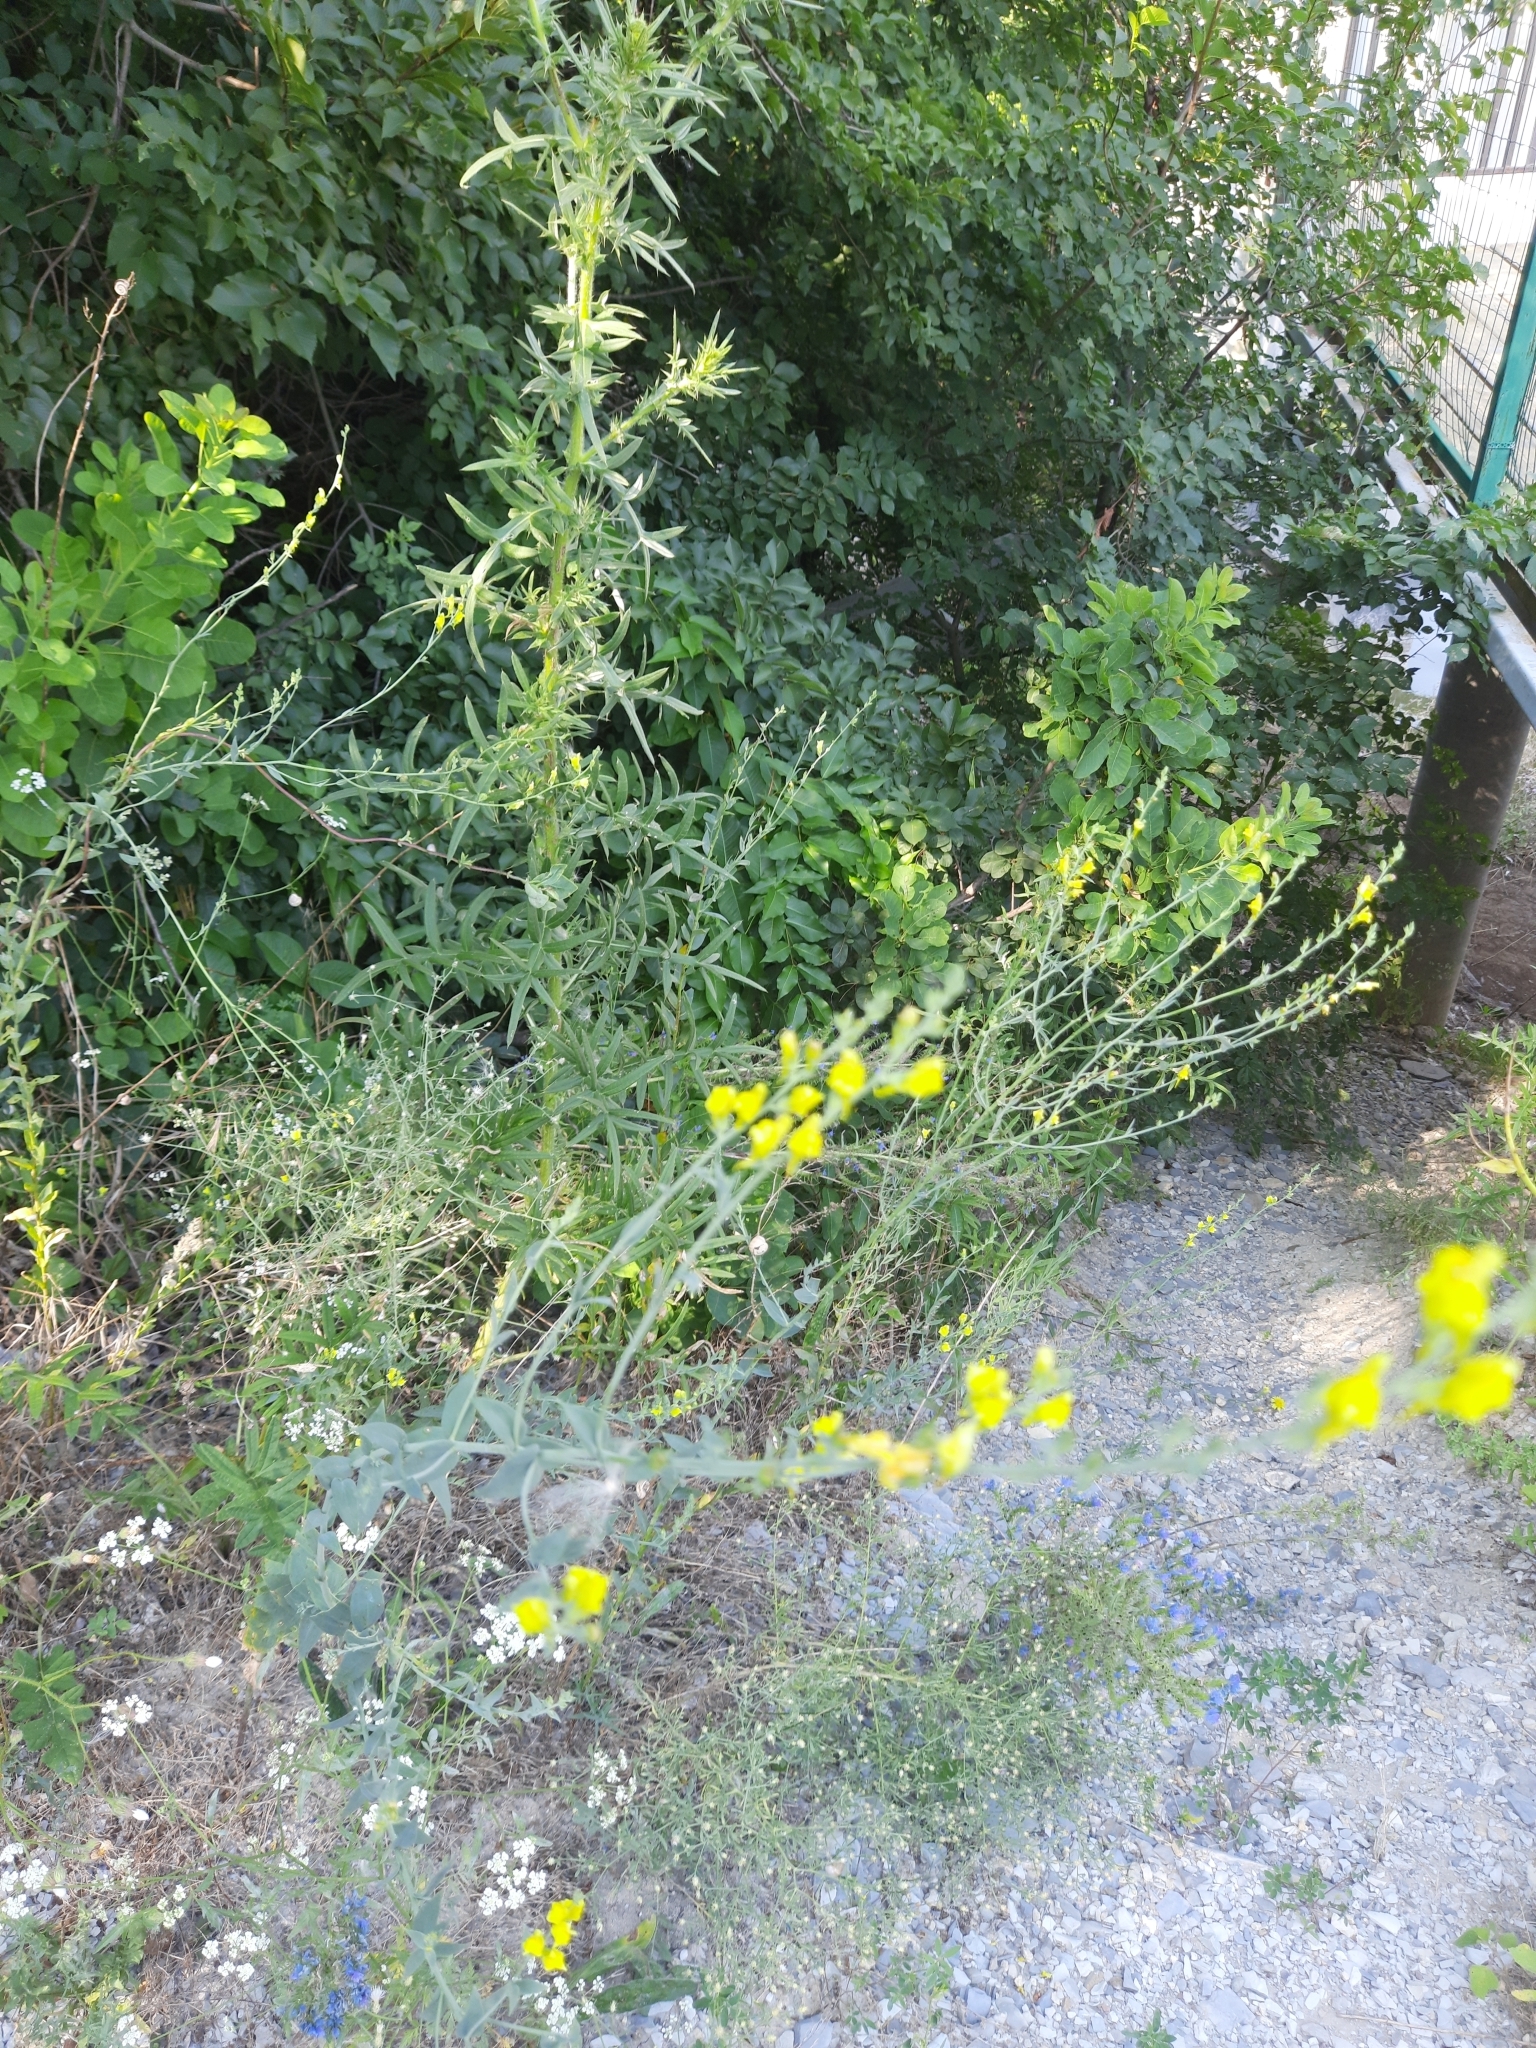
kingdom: Plantae
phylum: Tracheophyta
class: Magnoliopsida
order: Lamiales
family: Plantaginaceae
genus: Linaria
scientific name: Linaria genistifolia
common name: Broomleaf toadflax
